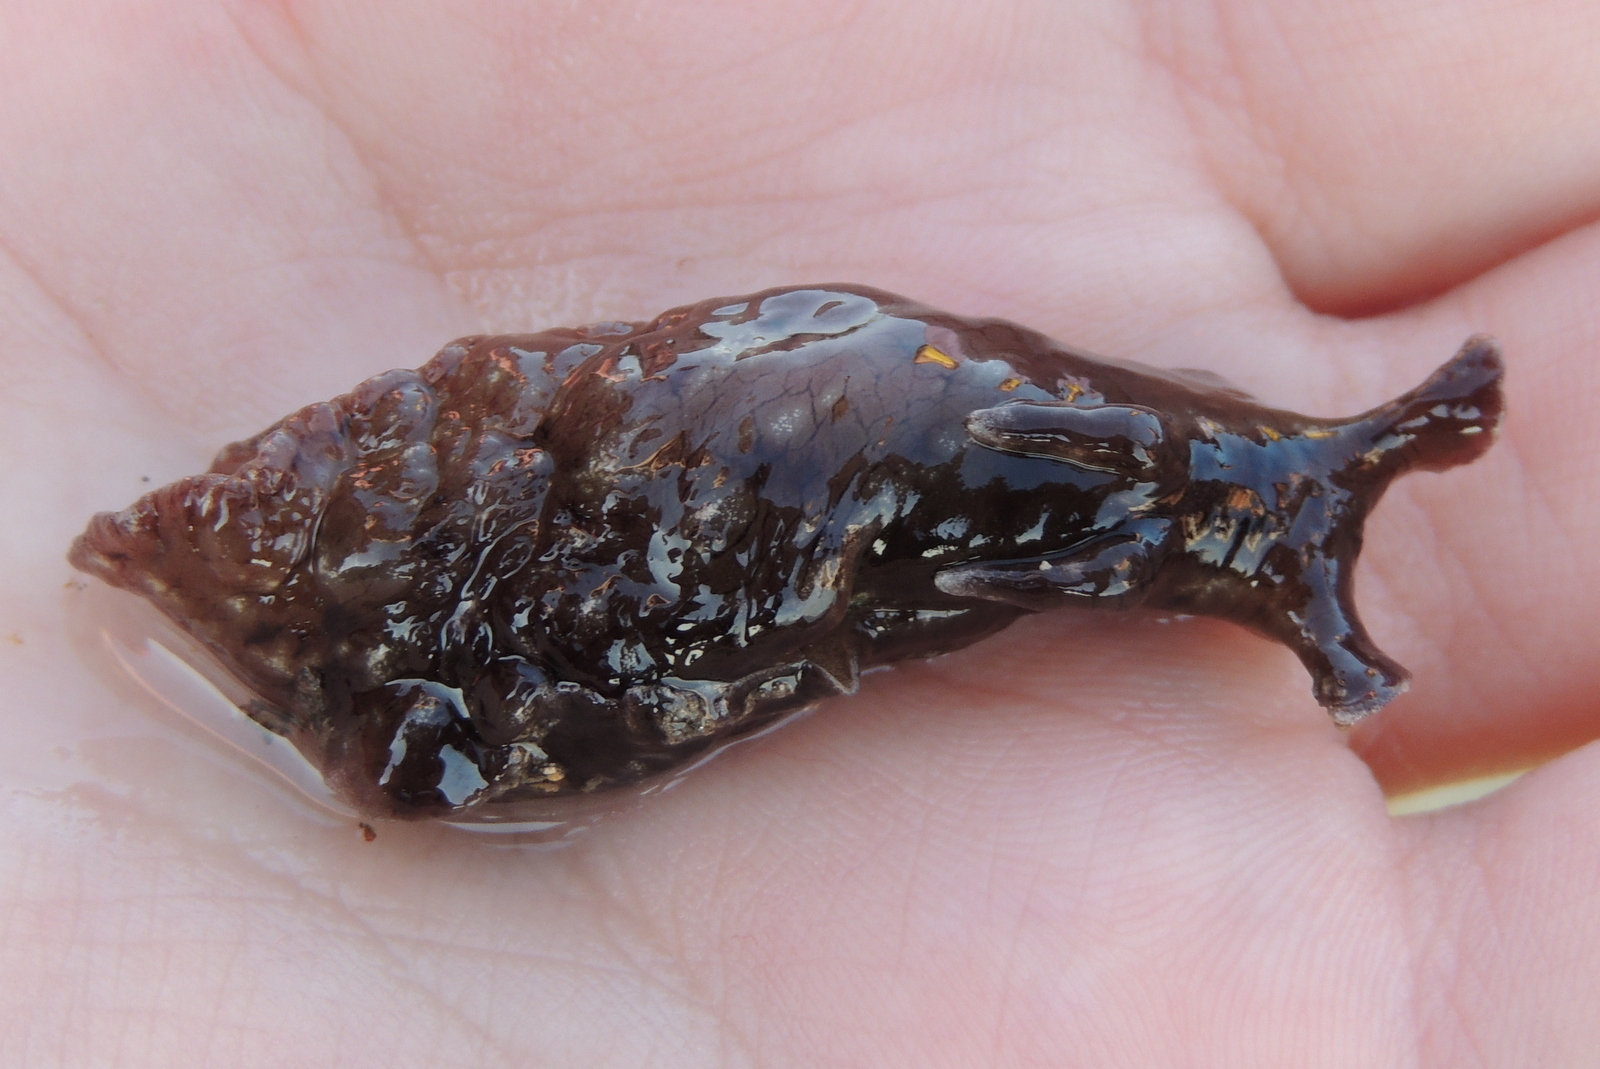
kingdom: Animalia
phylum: Mollusca
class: Gastropoda
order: Aplysiida
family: Aplysiidae
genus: Aplysia
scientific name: Aplysia californica
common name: California seahare
